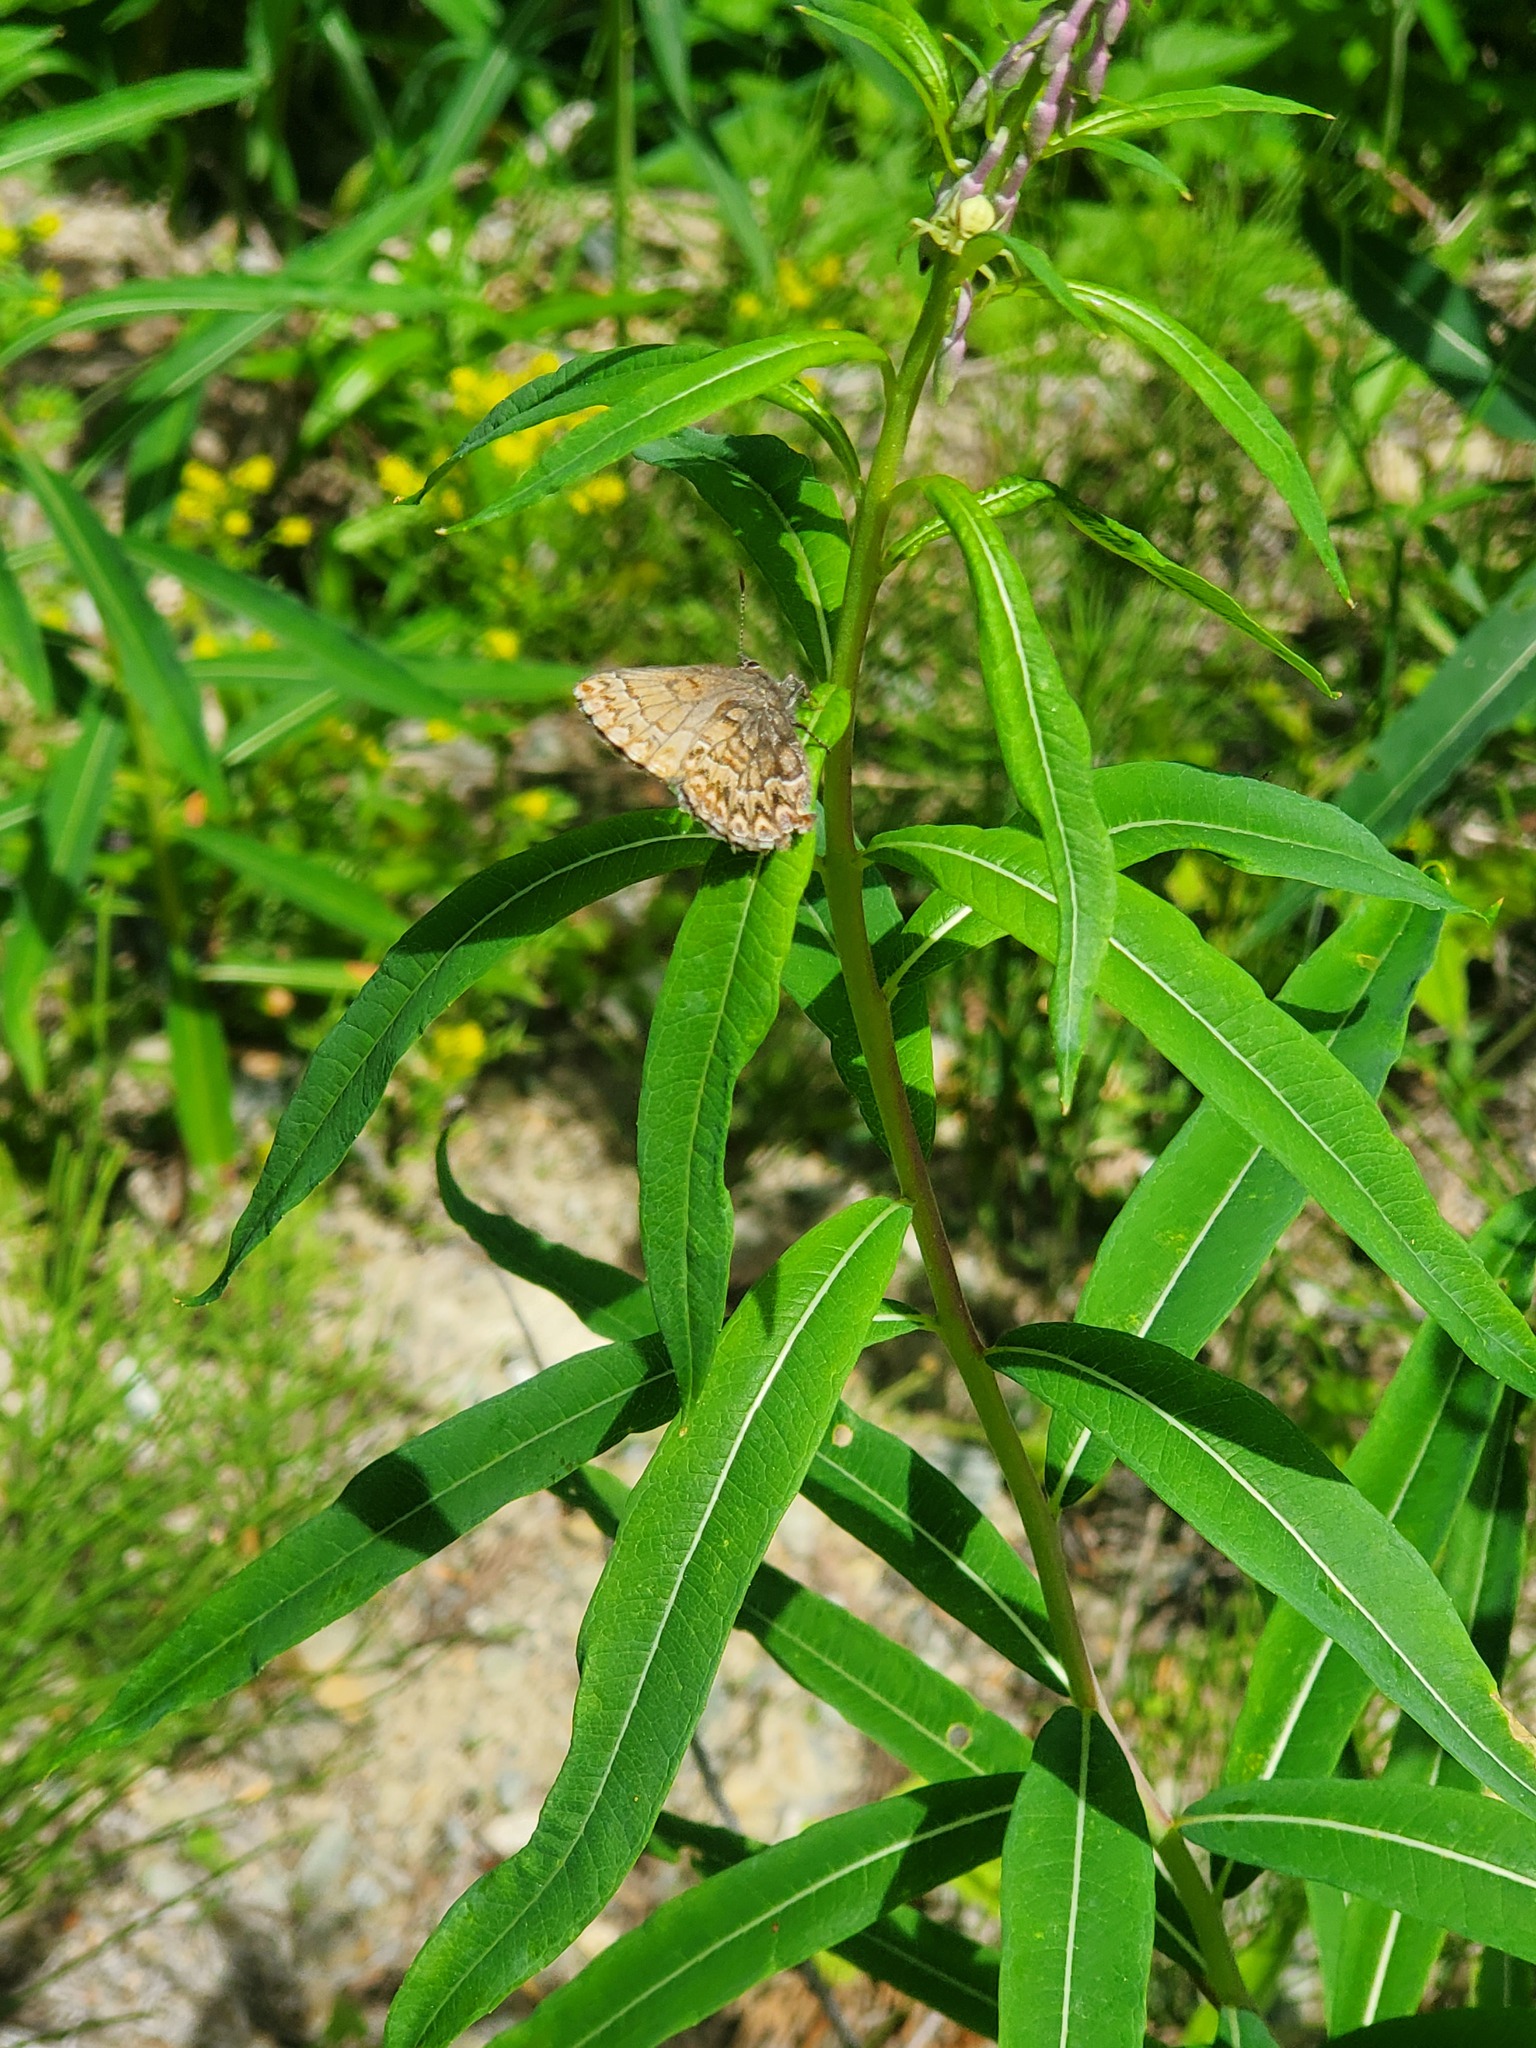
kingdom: Animalia
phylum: Arthropoda
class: Insecta
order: Lepidoptera
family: Lycaenidae
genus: Incisalia
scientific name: Incisalia eryphon
